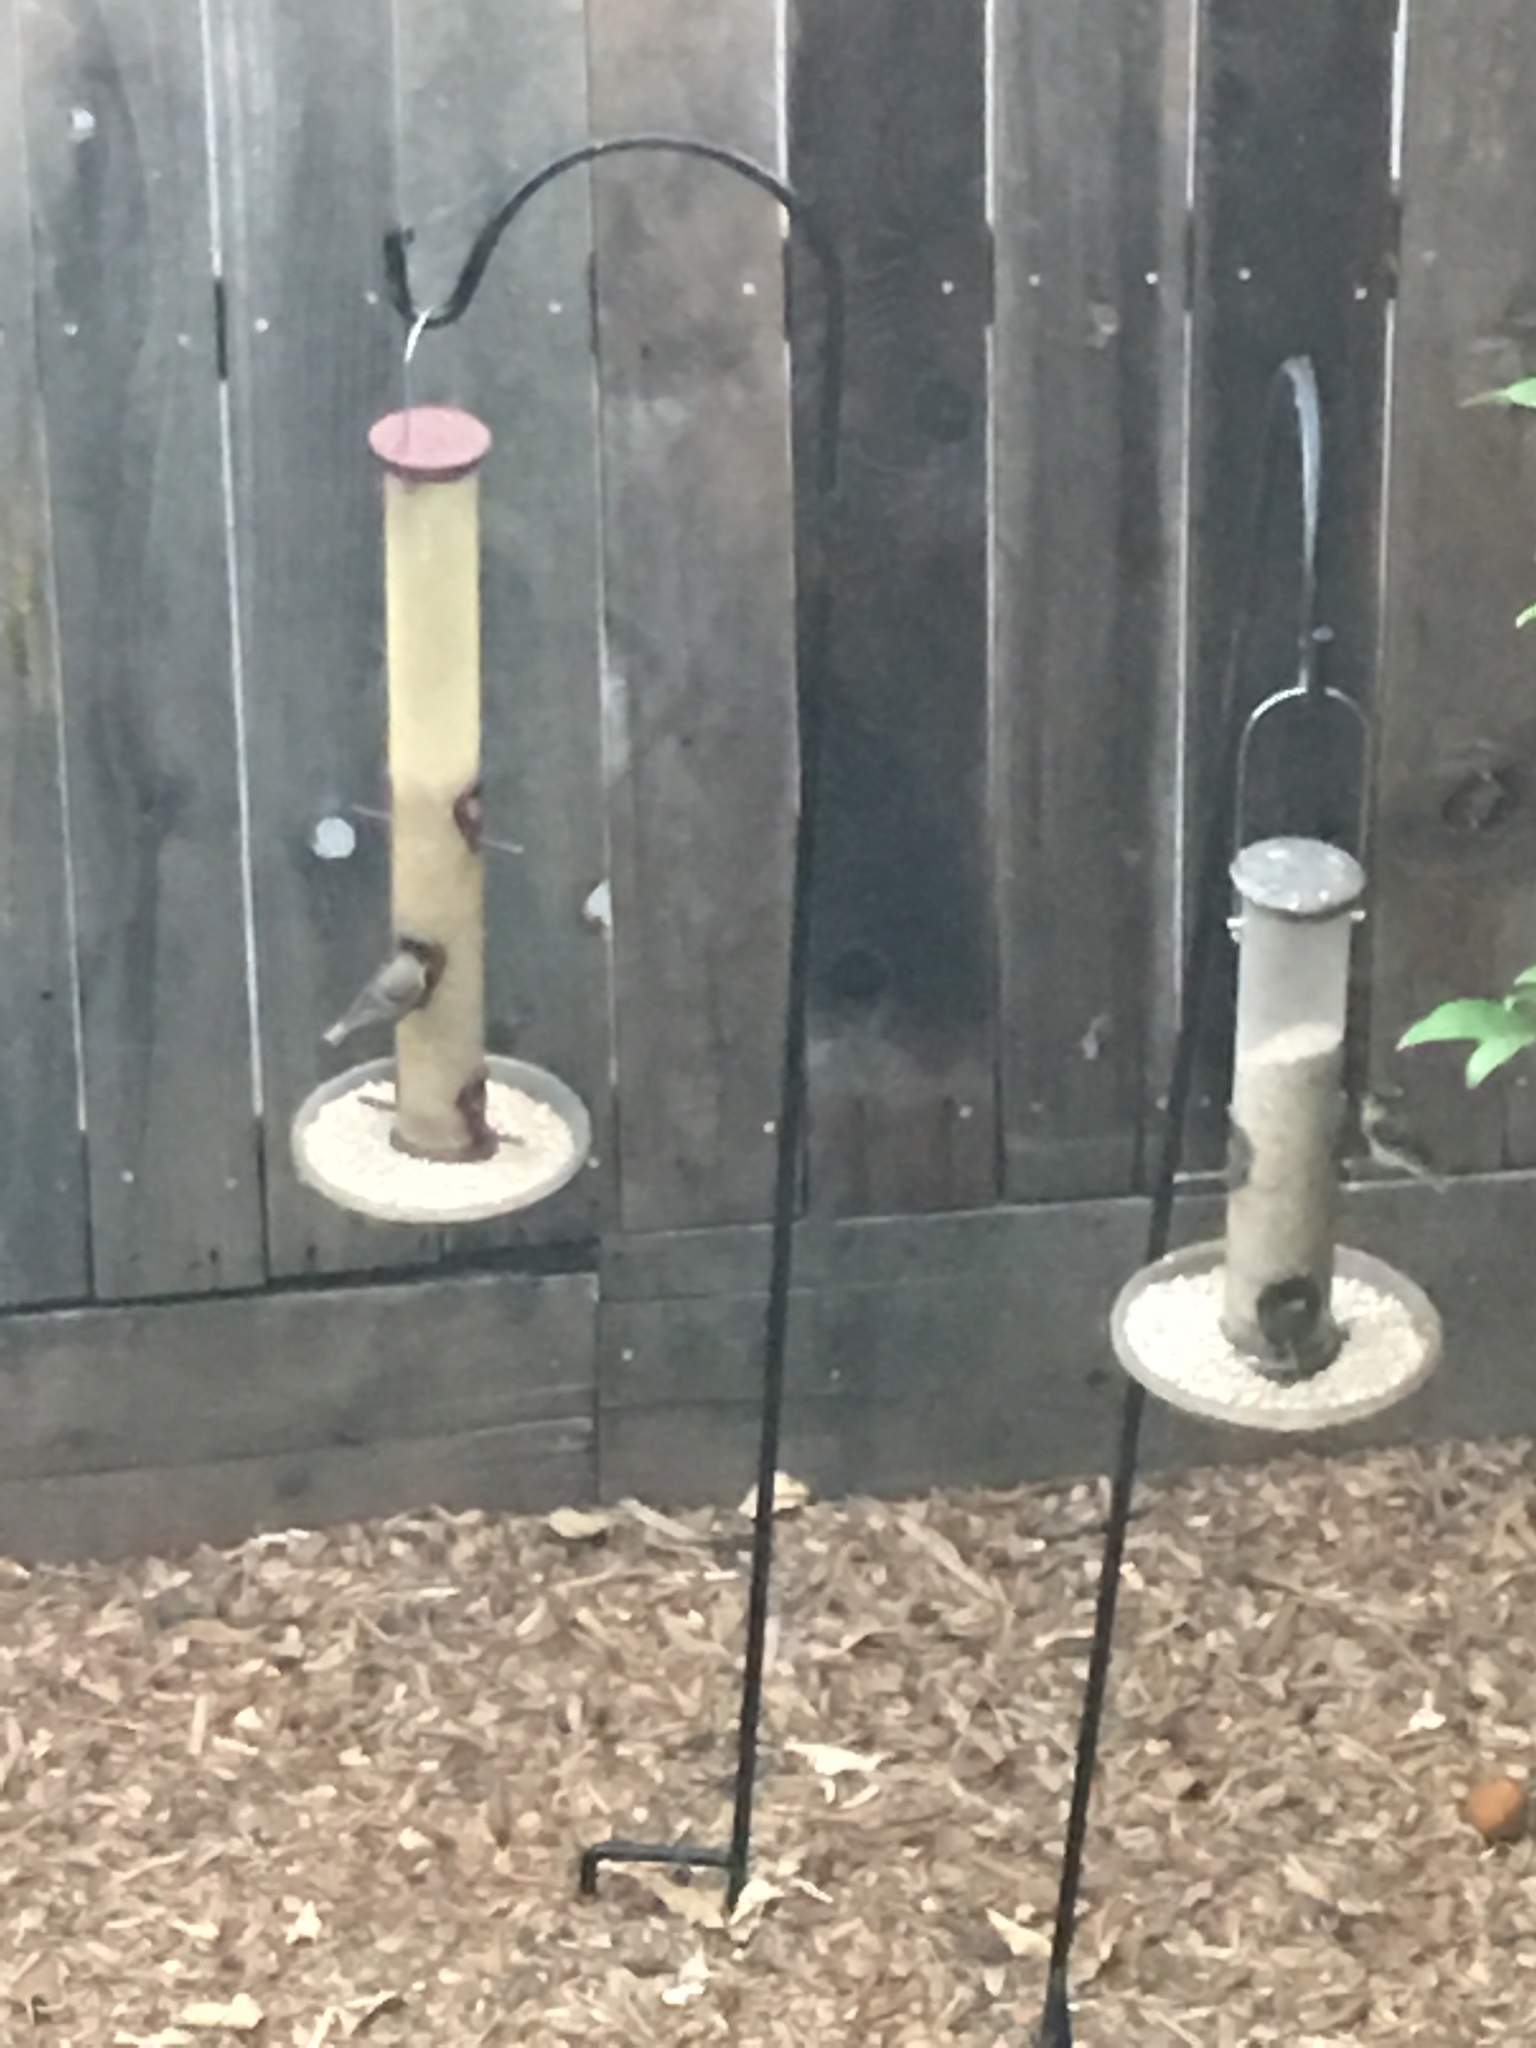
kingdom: Animalia
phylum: Chordata
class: Aves
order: Passeriformes
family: Fringillidae
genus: Spinus
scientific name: Spinus psaltria
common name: Lesser goldfinch
